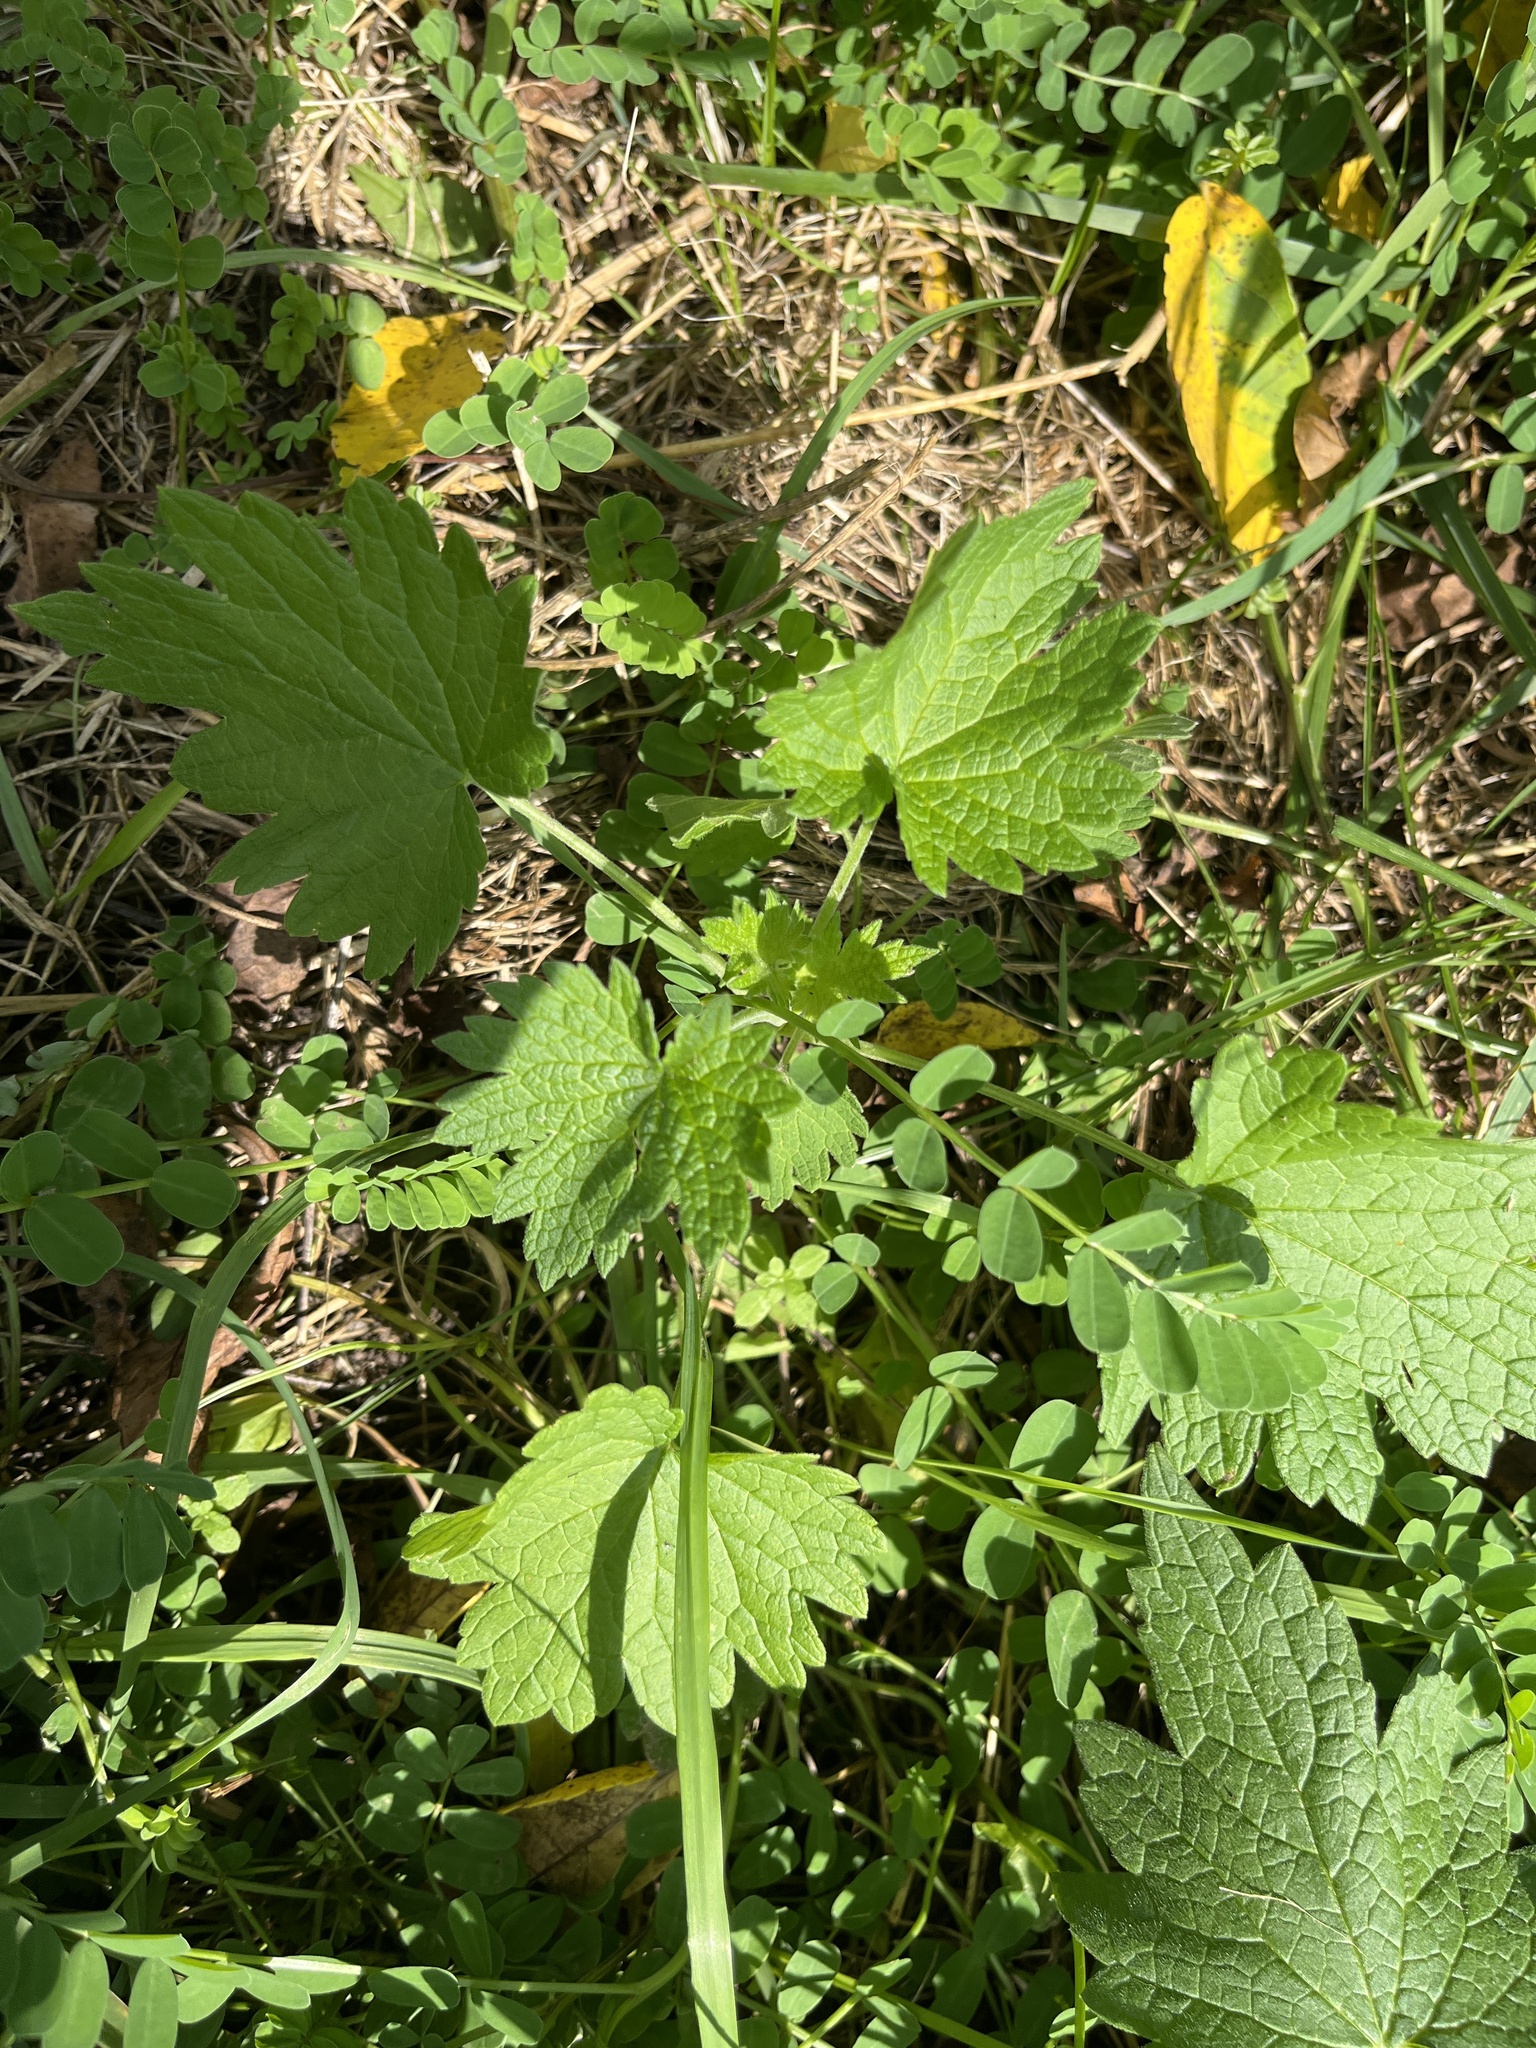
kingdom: Plantae
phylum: Tracheophyta
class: Magnoliopsida
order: Lamiales
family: Lamiaceae
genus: Leonurus
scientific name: Leonurus cardiaca
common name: Motherwort
